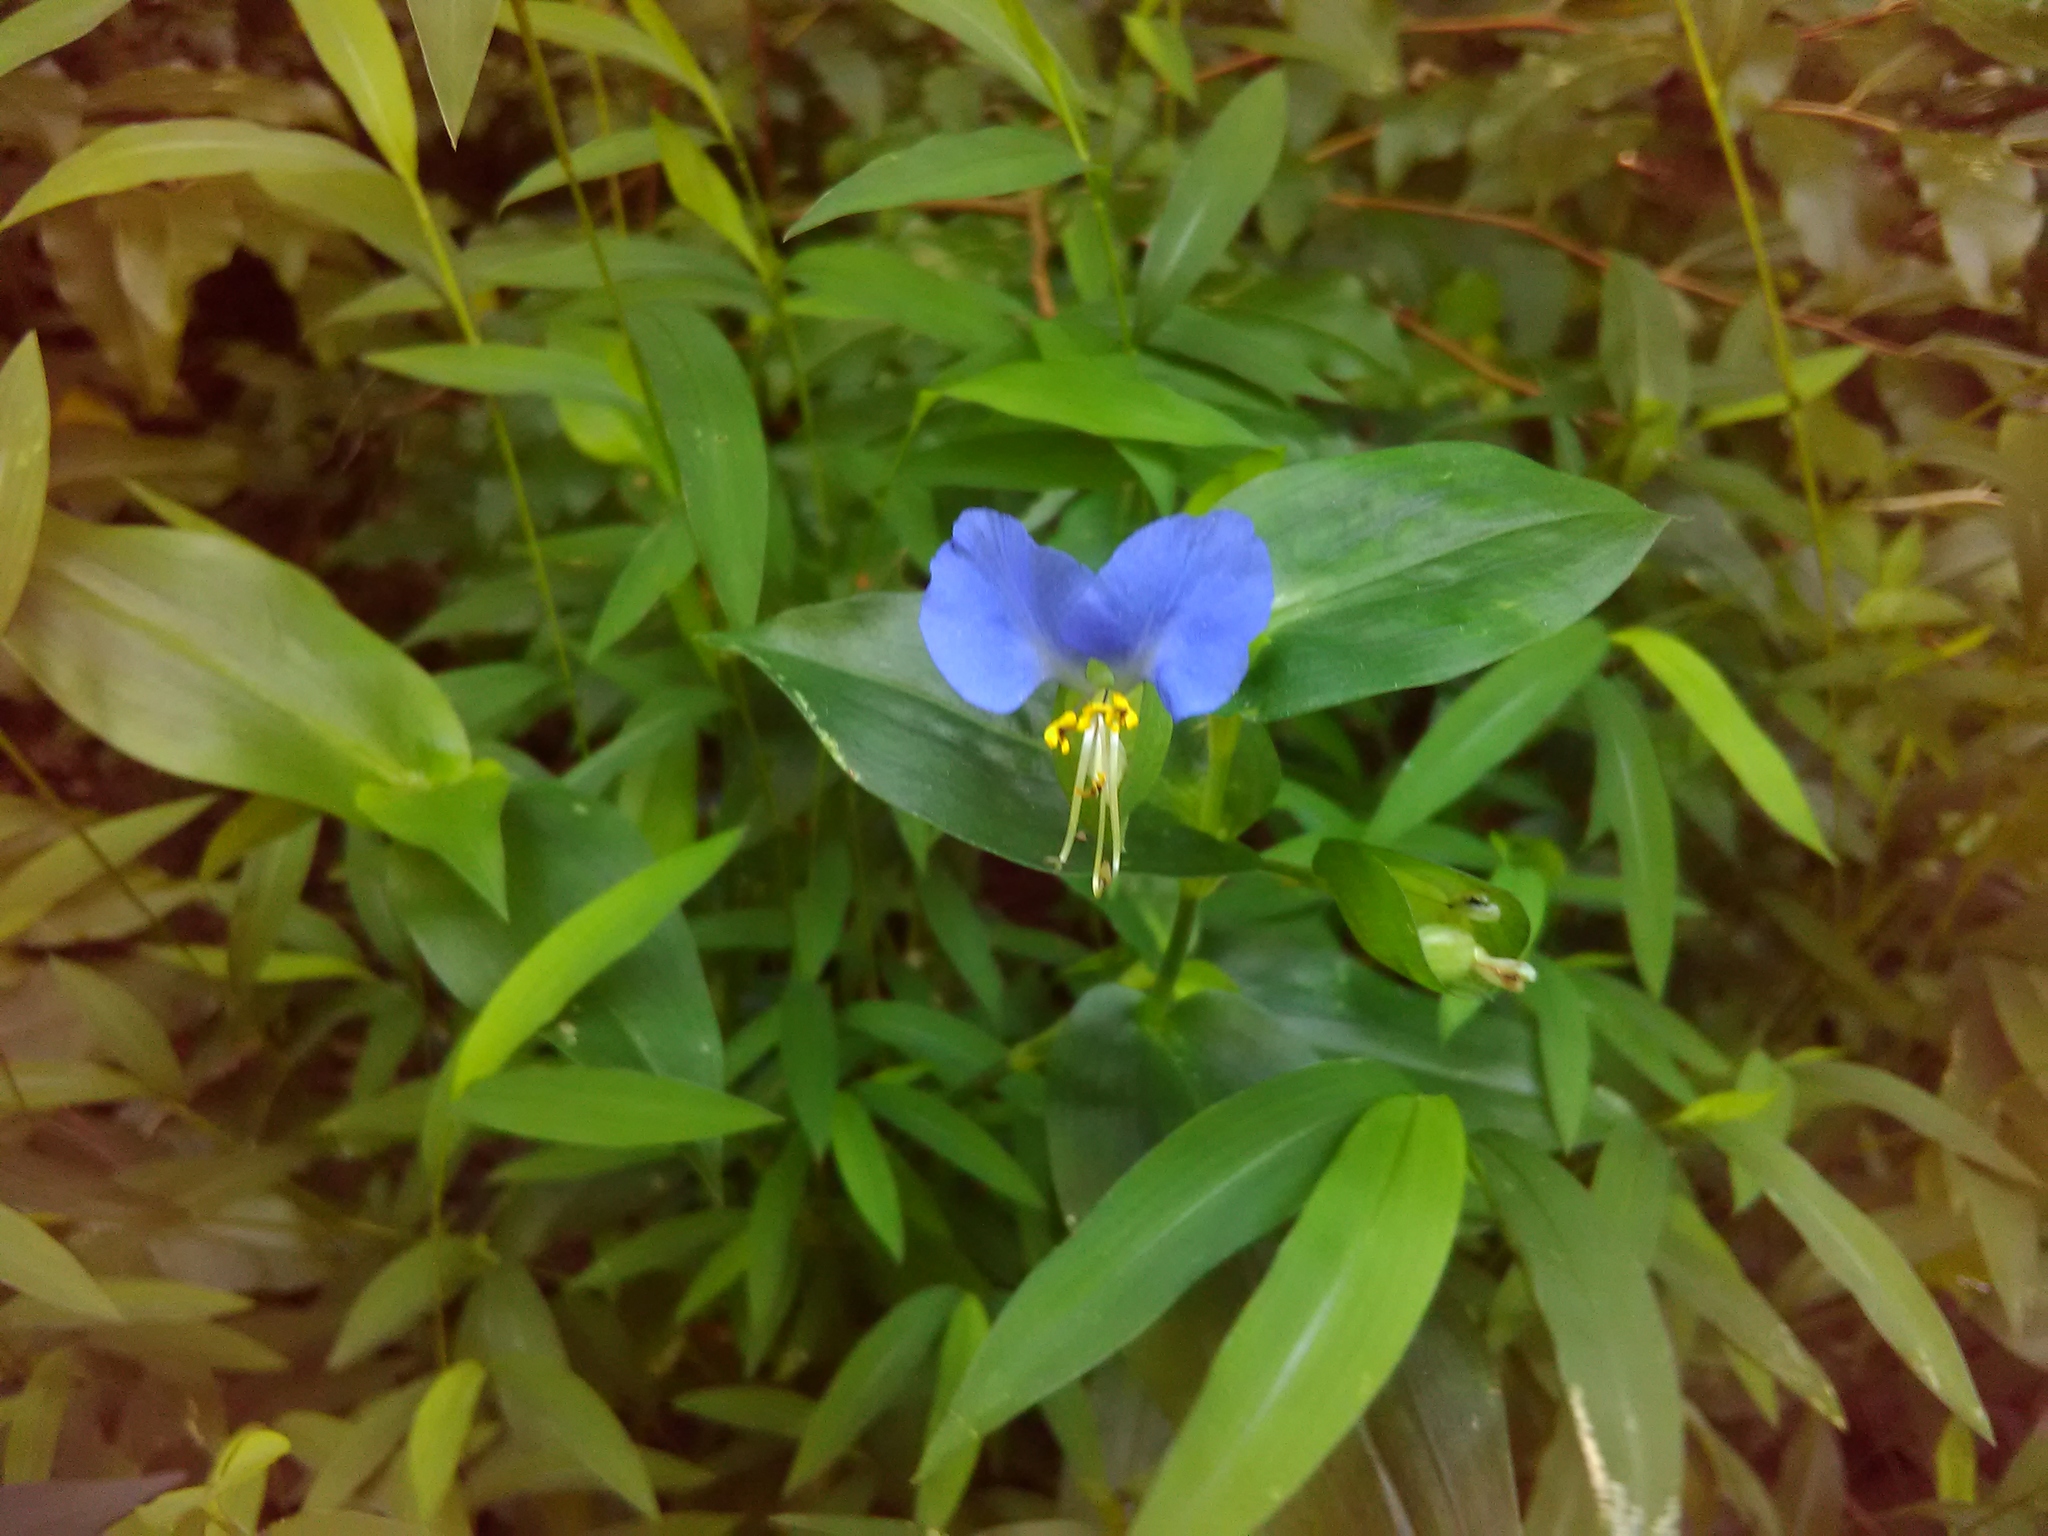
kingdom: Plantae
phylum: Tracheophyta
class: Liliopsida
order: Commelinales
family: Commelinaceae
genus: Commelina
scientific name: Commelina communis
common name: Asiatic dayflower
